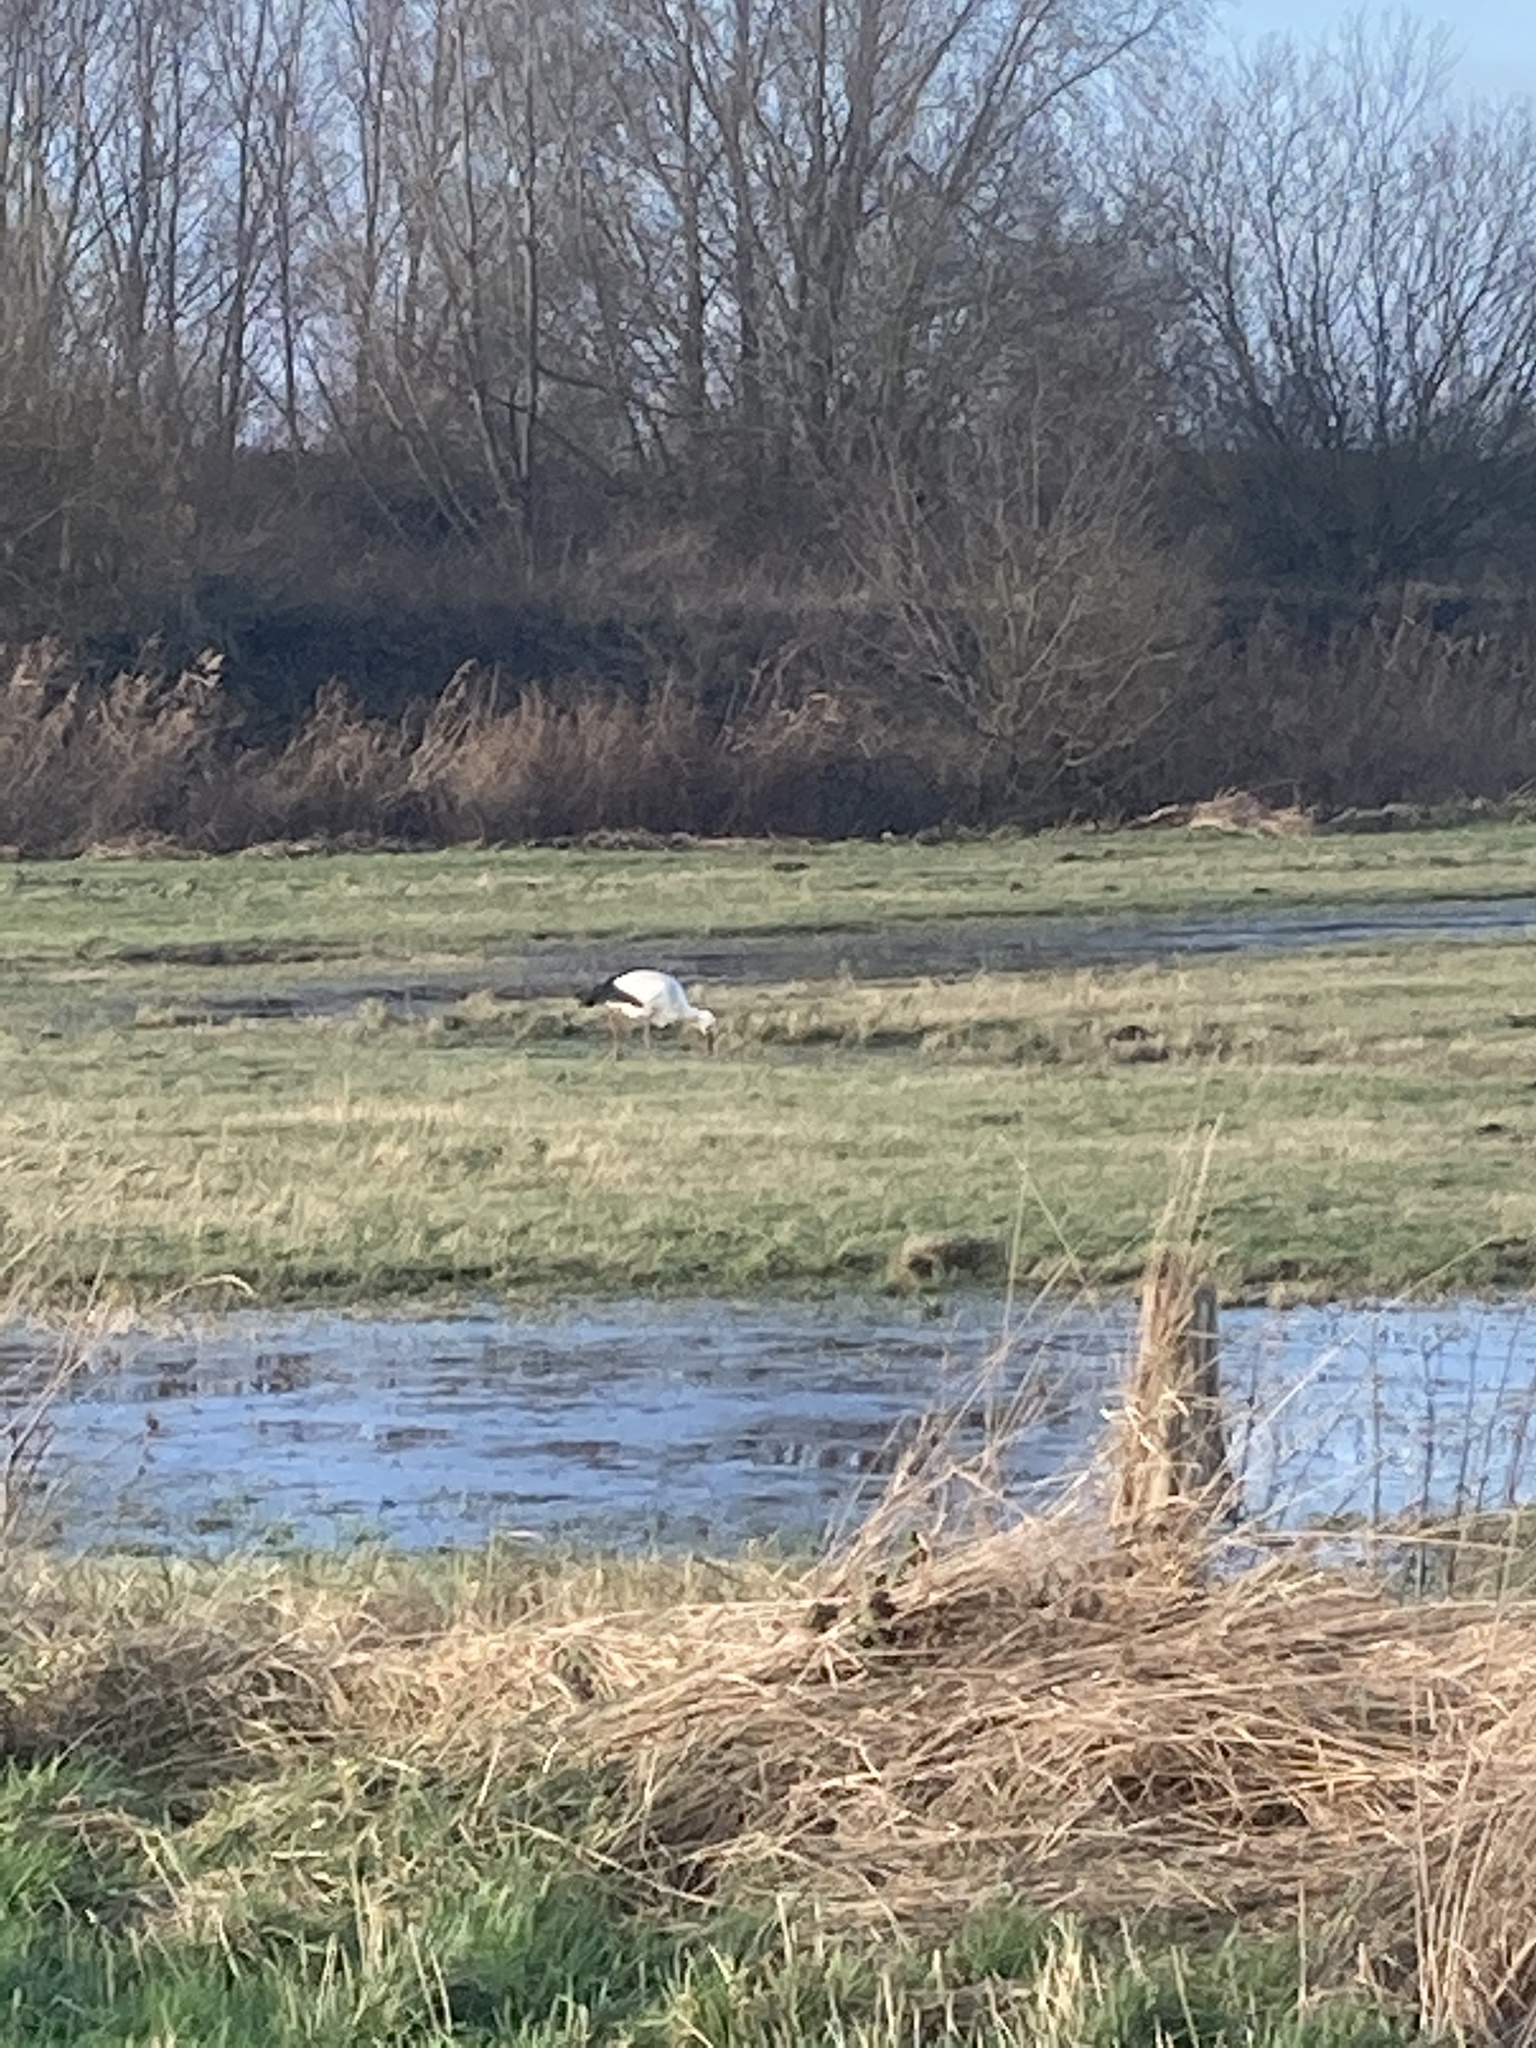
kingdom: Animalia
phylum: Chordata
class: Aves
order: Ciconiiformes
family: Ciconiidae
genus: Ciconia
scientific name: Ciconia ciconia
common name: White stork
